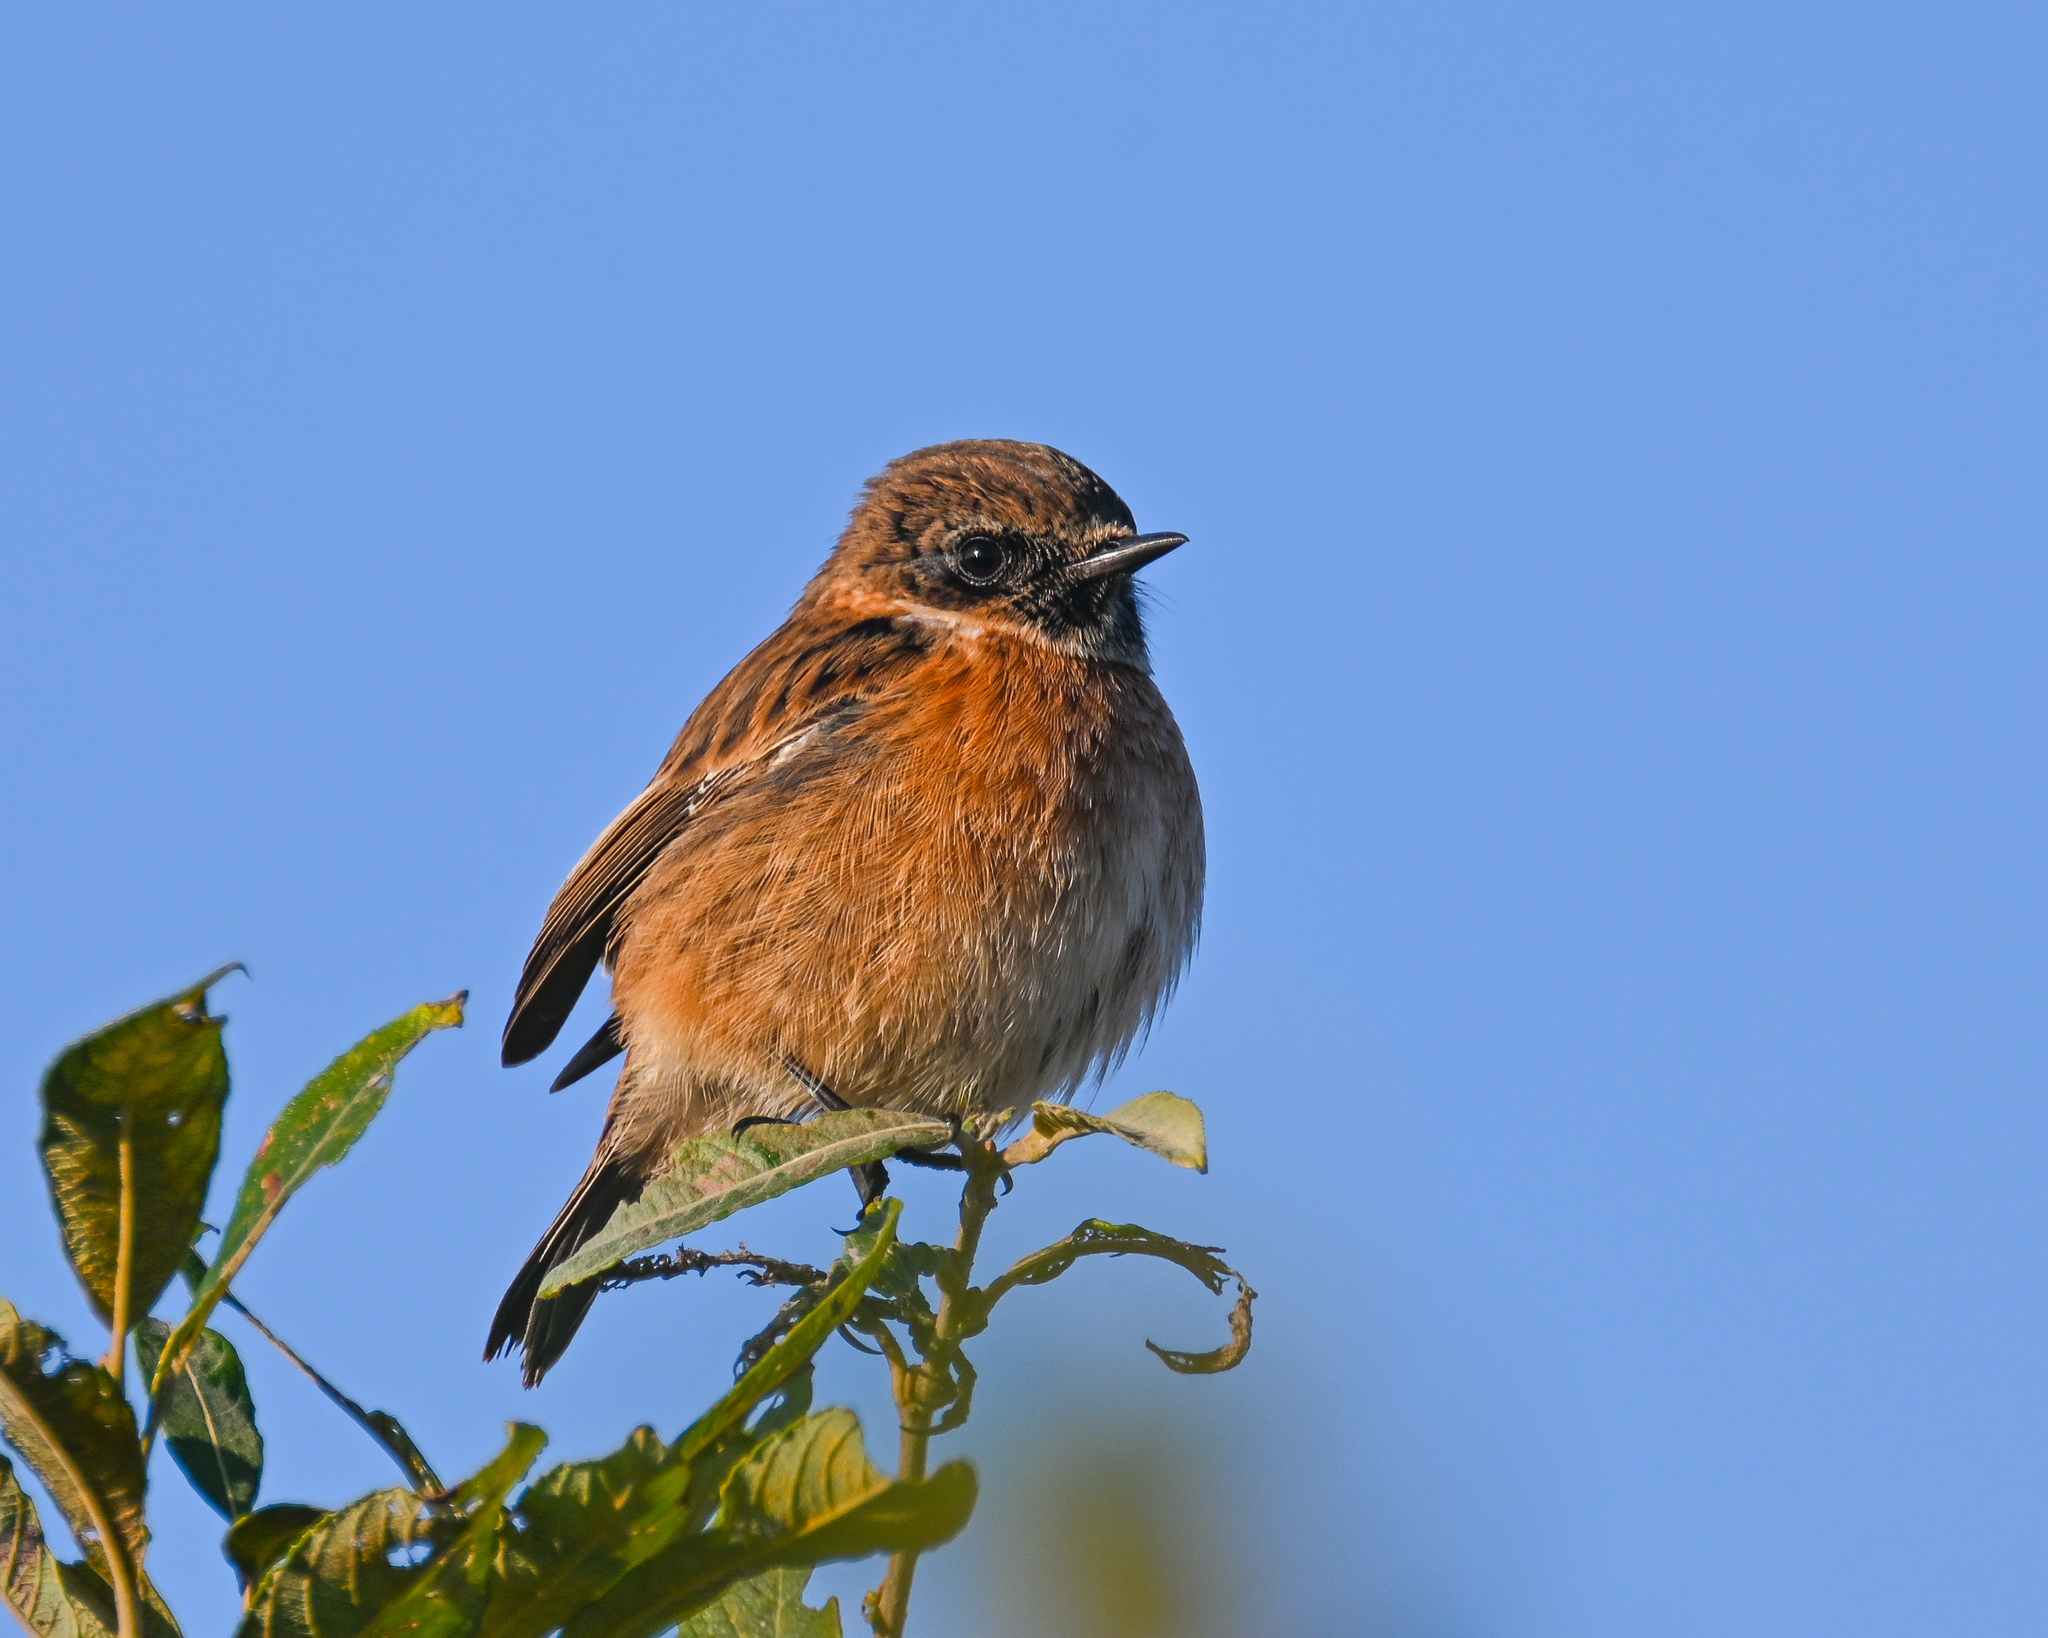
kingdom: Animalia
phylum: Chordata
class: Aves
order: Passeriformes
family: Muscicapidae
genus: Saxicola
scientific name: Saxicola rubicola
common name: European stonechat
